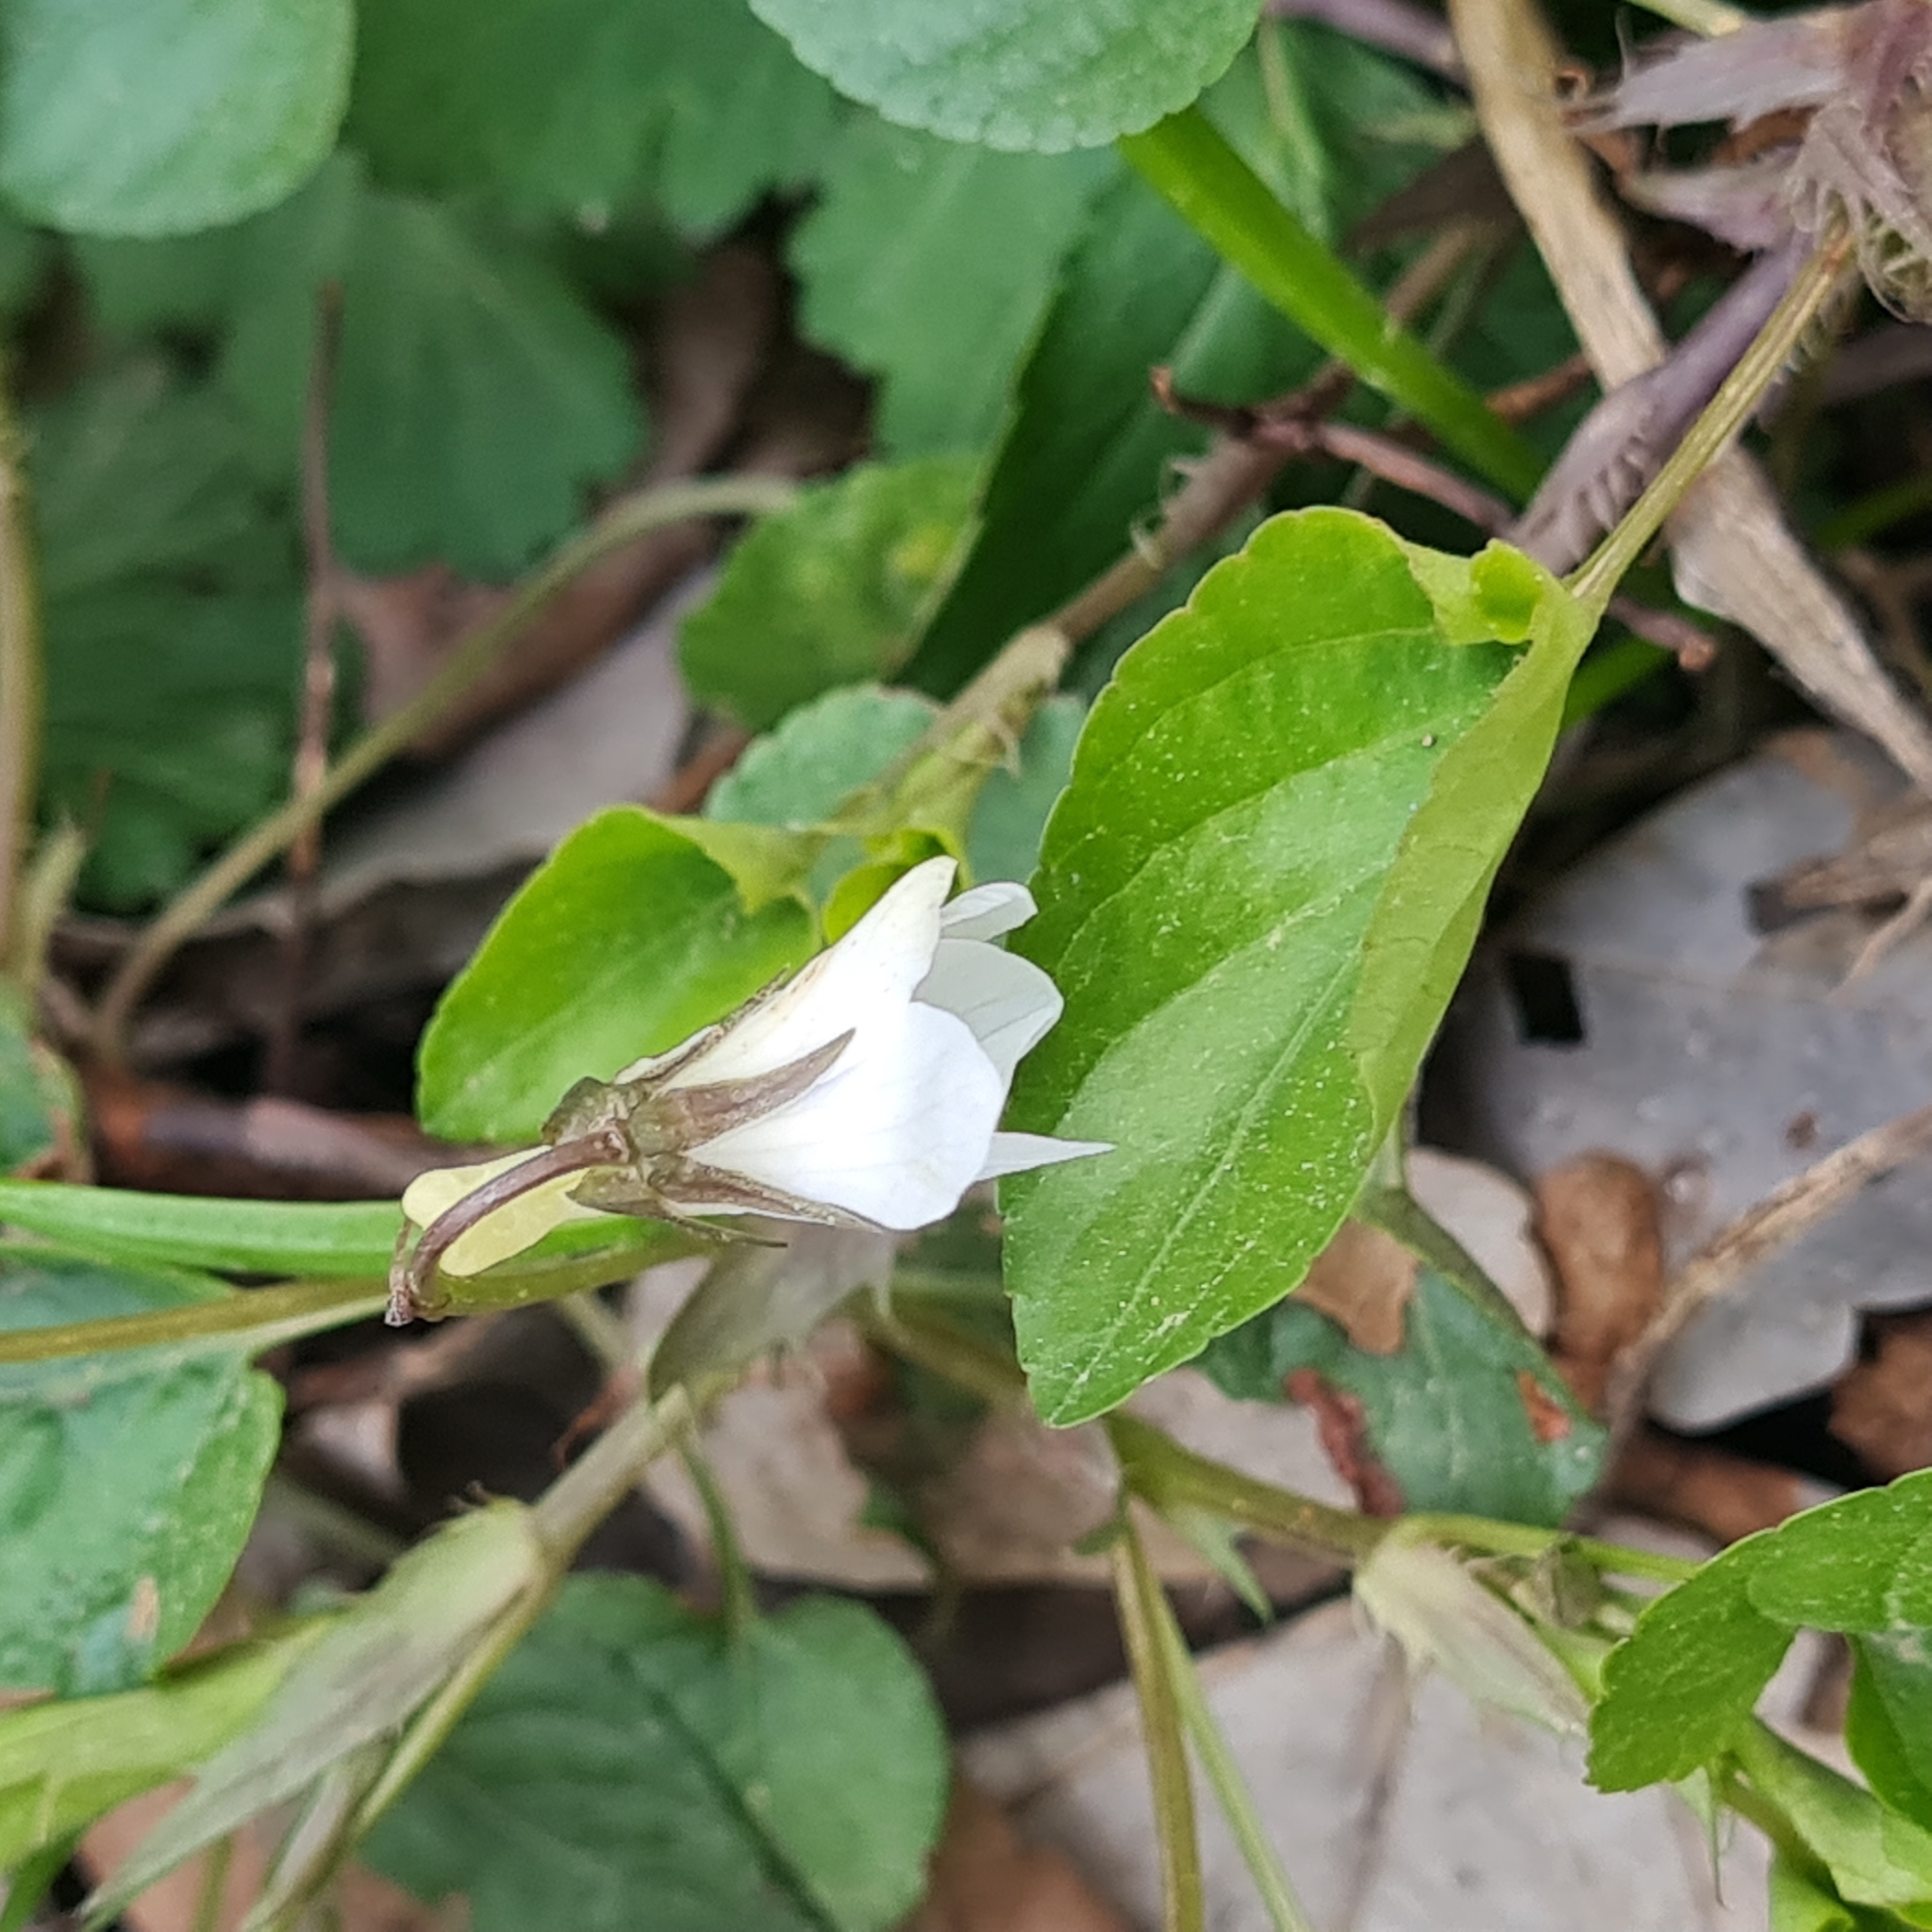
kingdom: Plantae
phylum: Tracheophyta
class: Magnoliopsida
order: Malpighiales
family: Violaceae
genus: Viola
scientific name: Viola alba
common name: White violet
